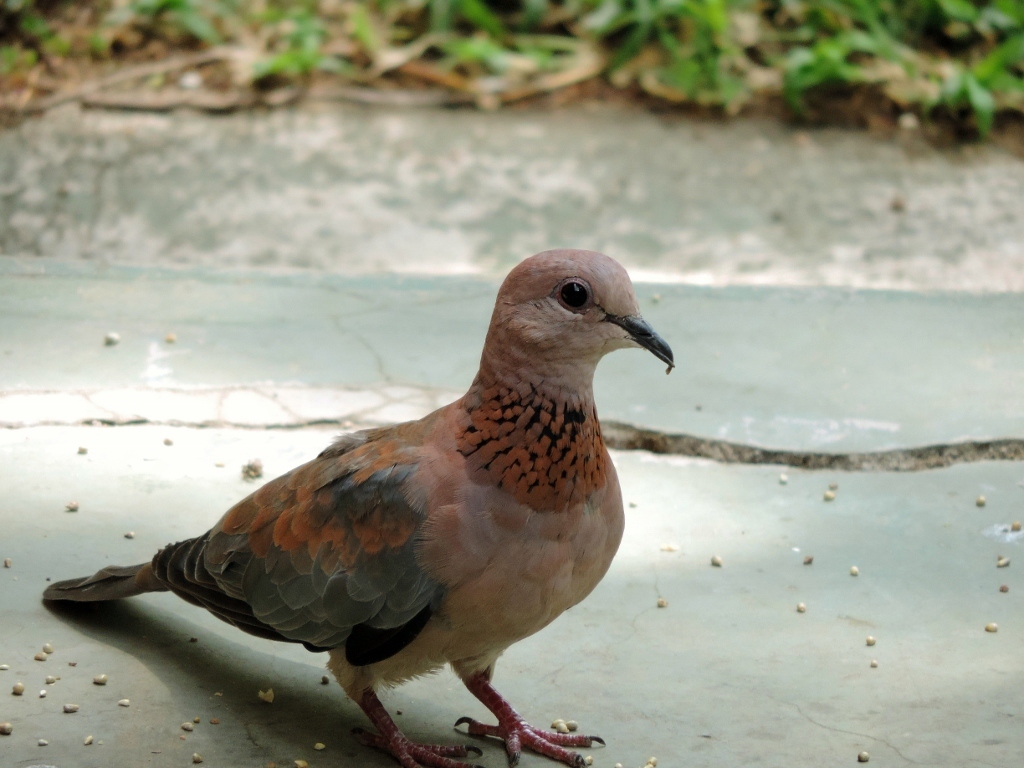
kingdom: Animalia
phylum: Chordata
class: Aves
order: Columbiformes
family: Columbidae
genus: Spilopelia
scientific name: Spilopelia senegalensis
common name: Laughing dove
